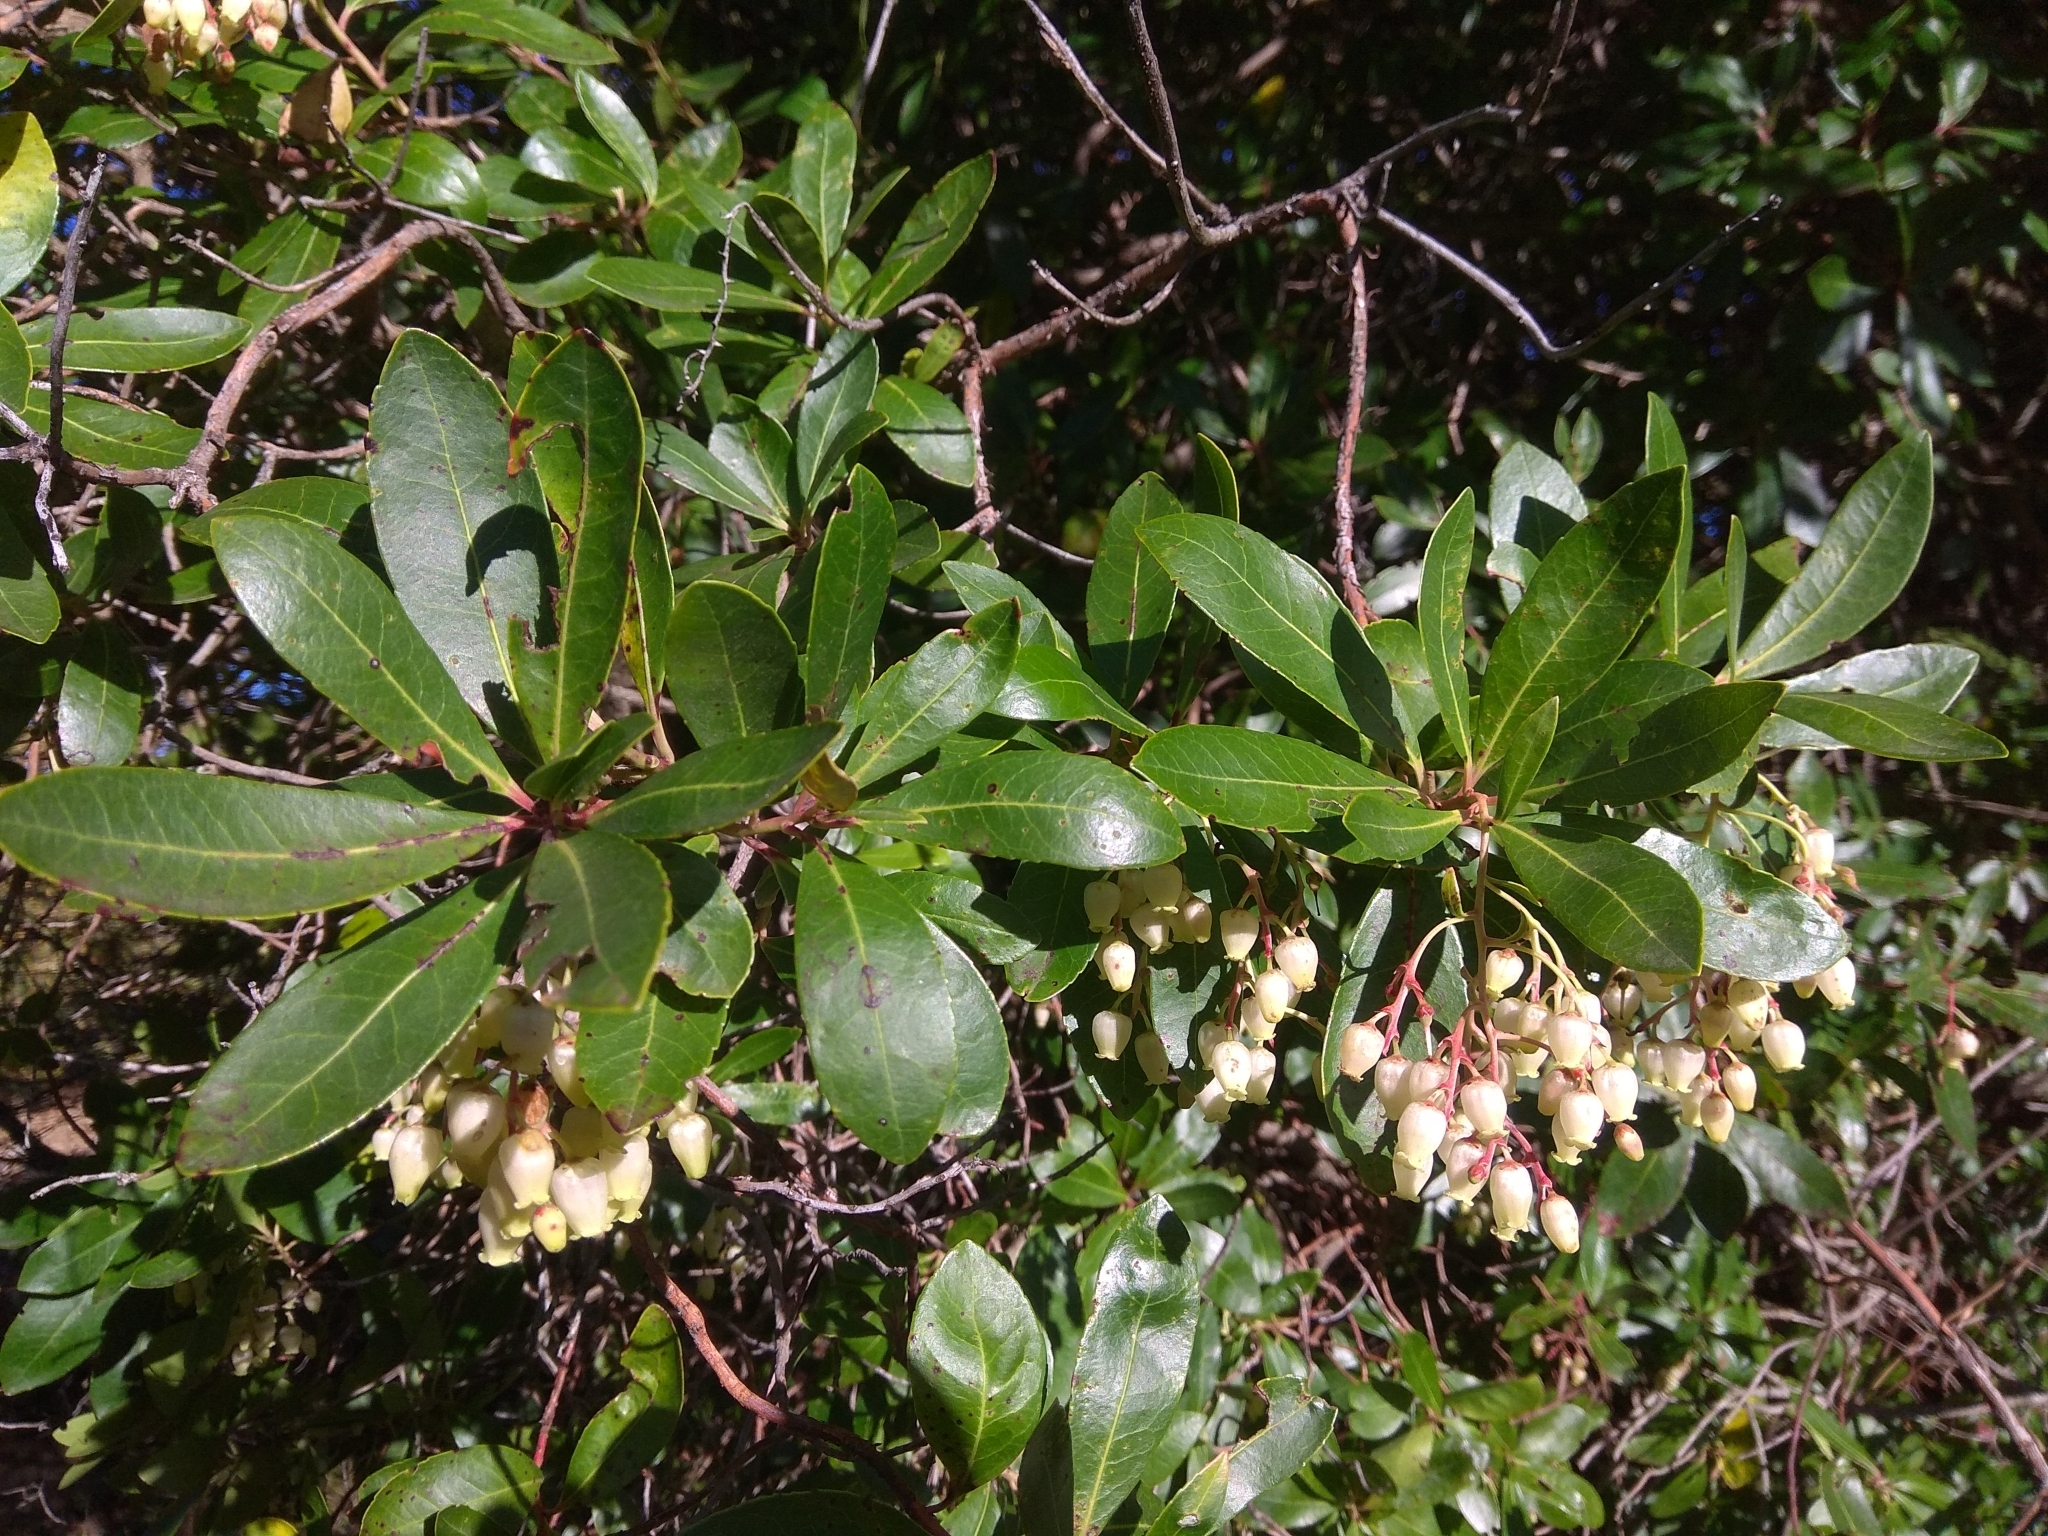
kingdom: Plantae
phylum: Tracheophyta
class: Magnoliopsida
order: Ericales
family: Ericaceae
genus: Arbutus
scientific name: Arbutus unedo
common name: Strawberry-tree
